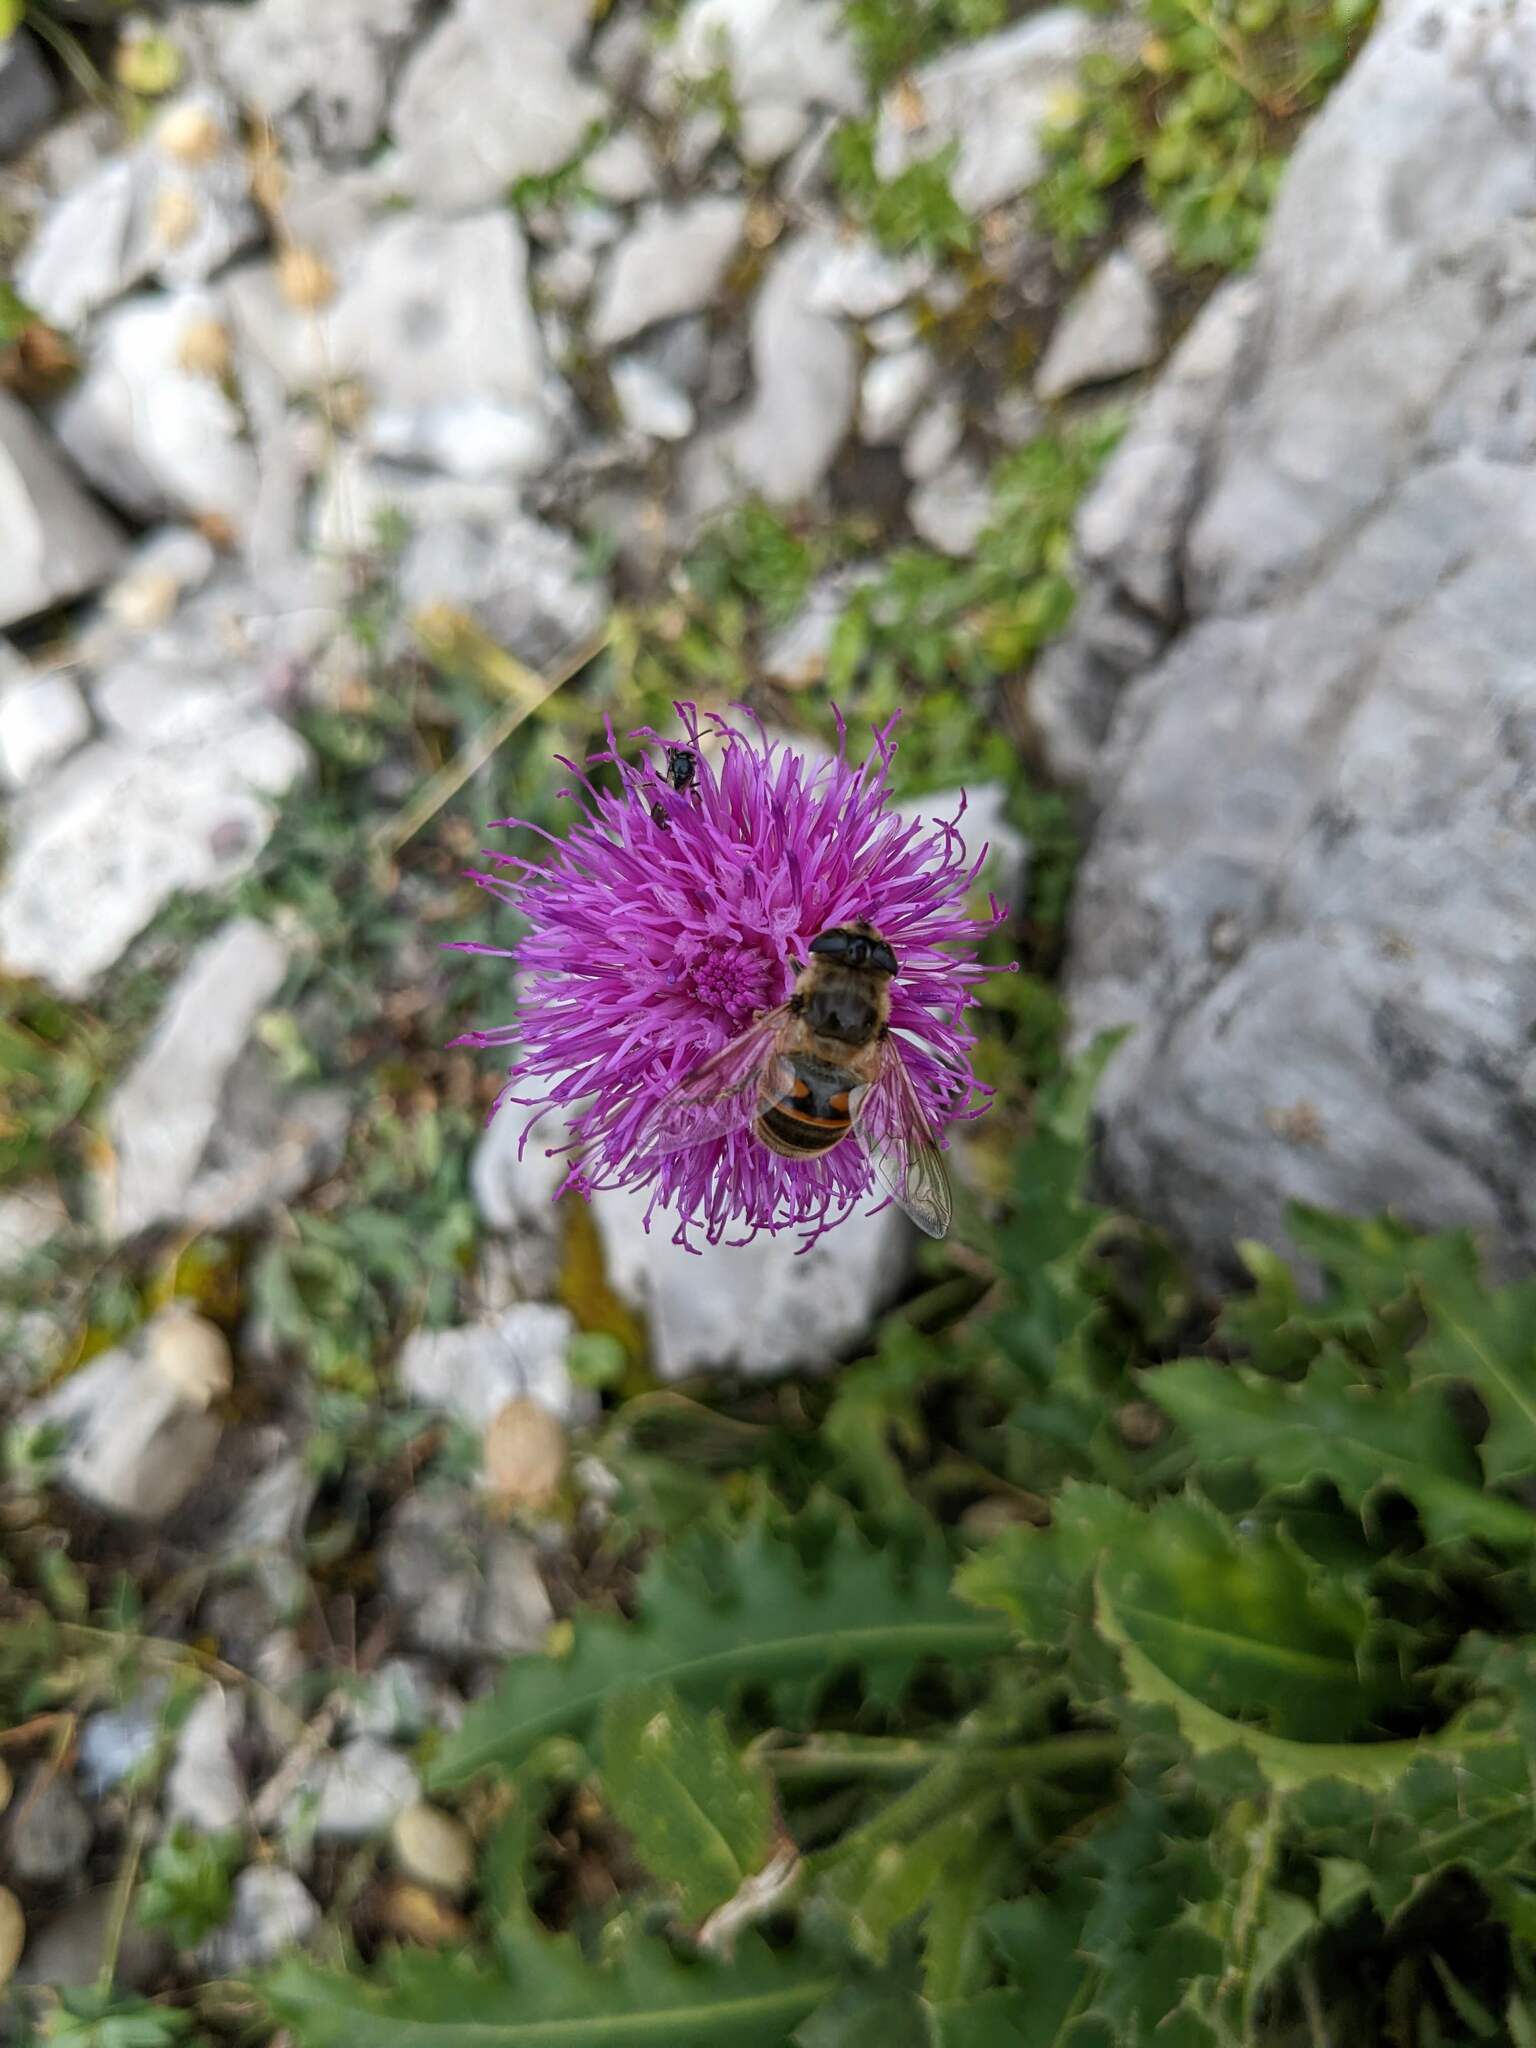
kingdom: Plantae
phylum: Tracheophyta
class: Magnoliopsida
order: Asterales
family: Asteraceae
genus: Carduus
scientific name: Carduus defloratus
